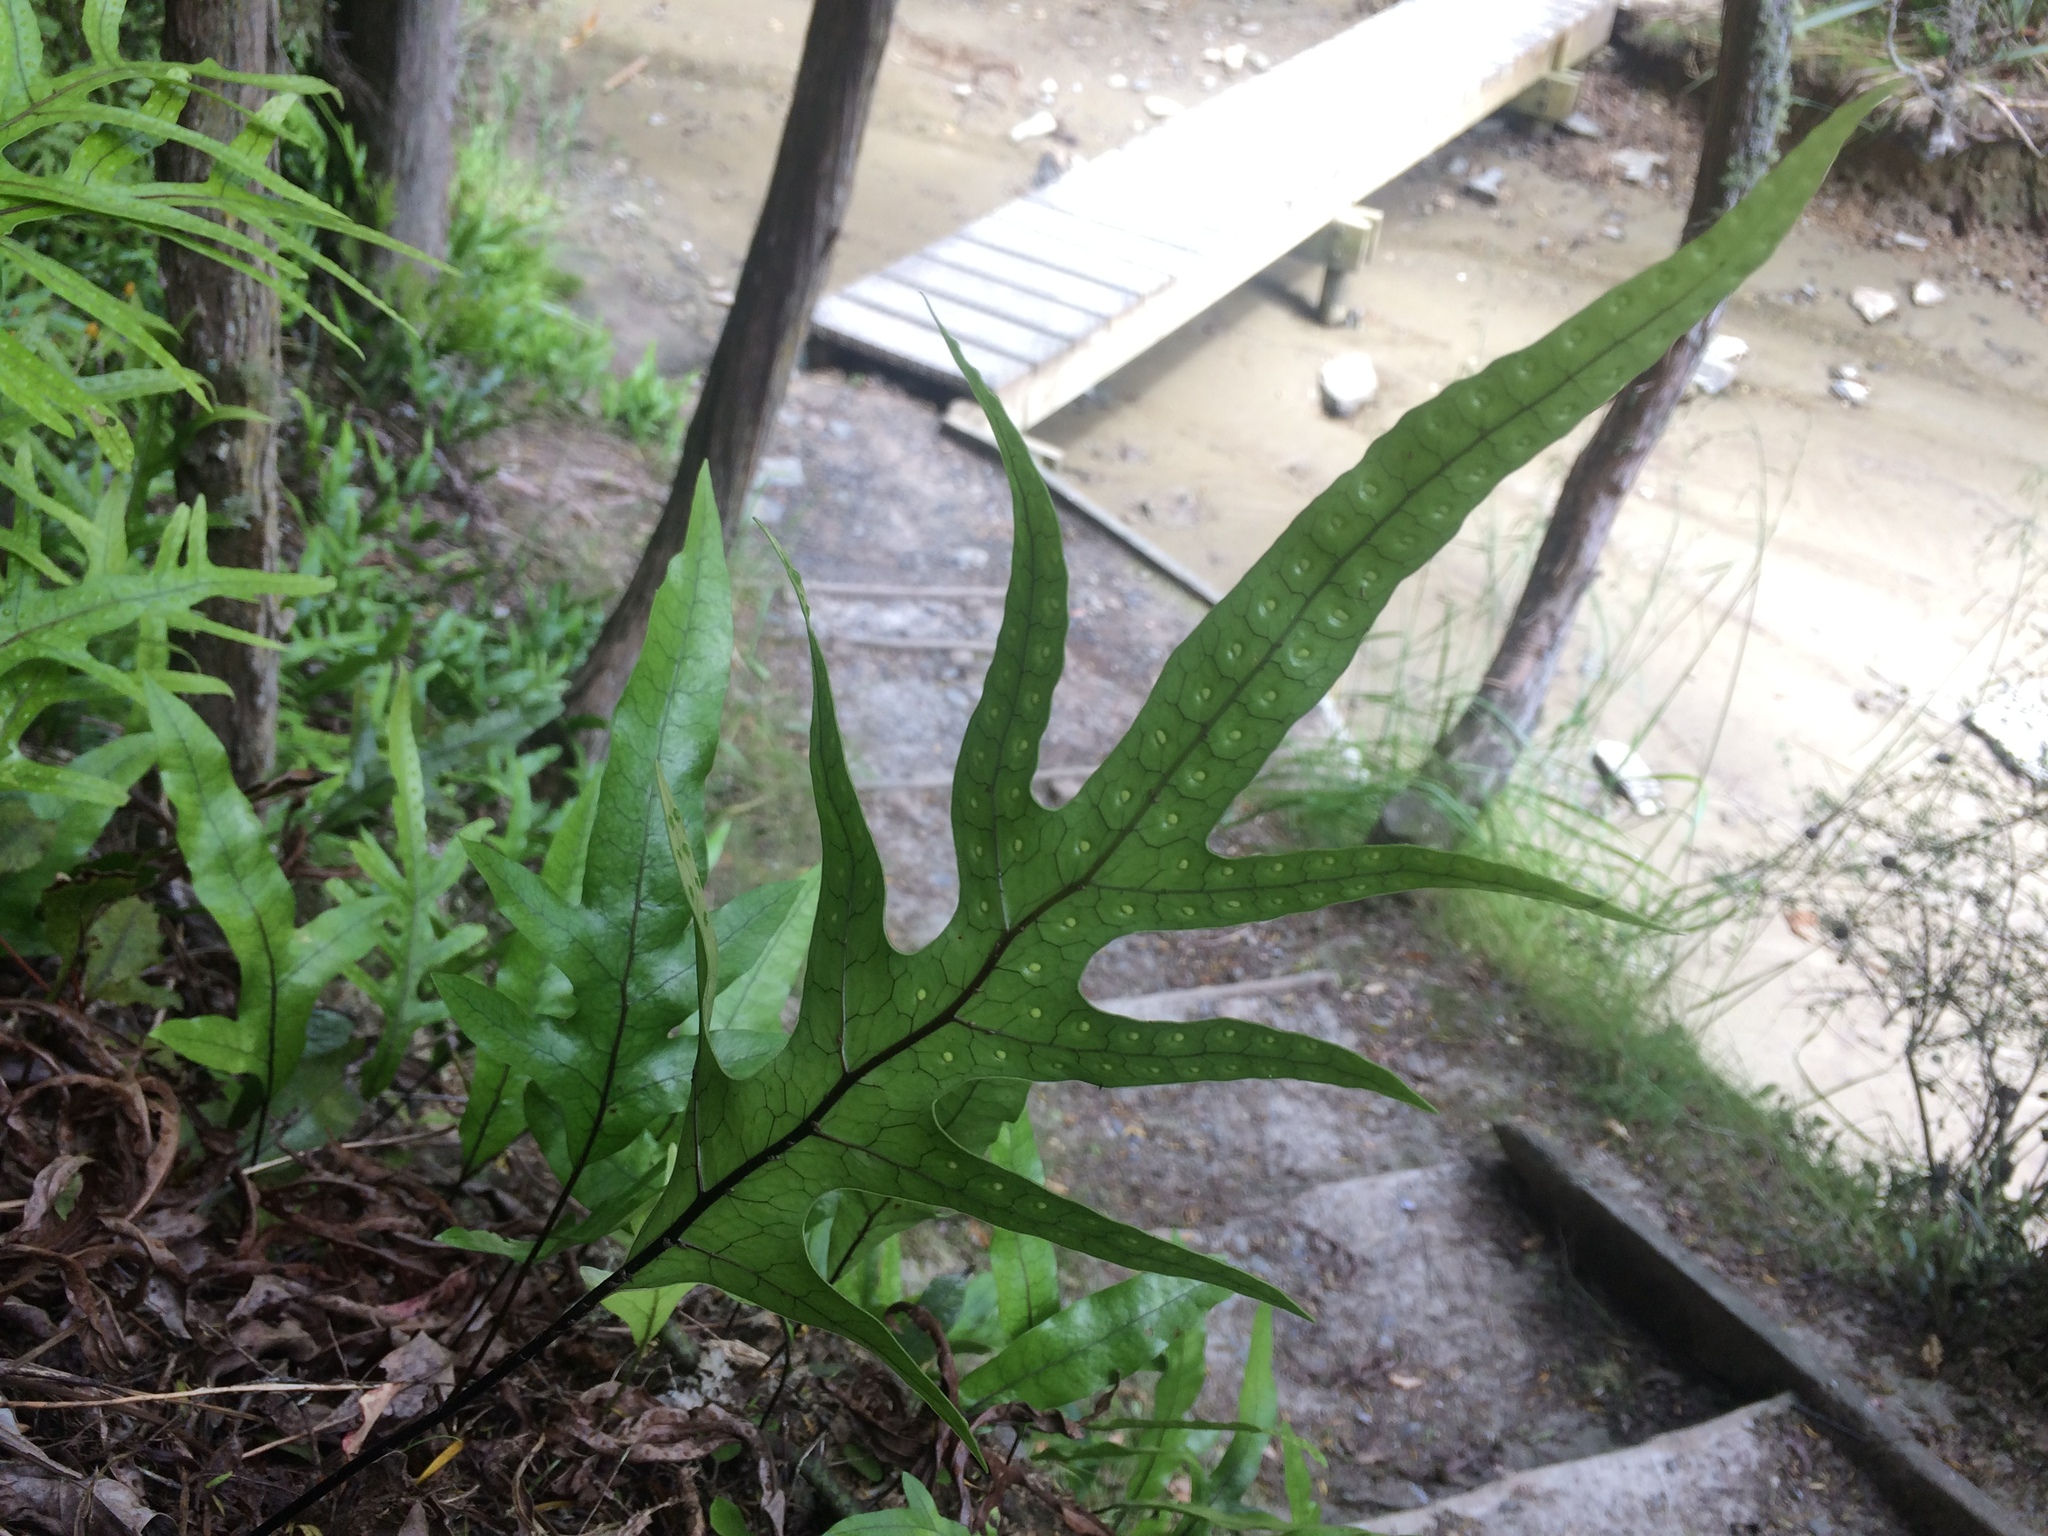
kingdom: Plantae
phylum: Tracheophyta
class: Polypodiopsida
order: Polypodiales
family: Polypodiaceae
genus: Lecanopteris
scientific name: Lecanopteris pustulata
